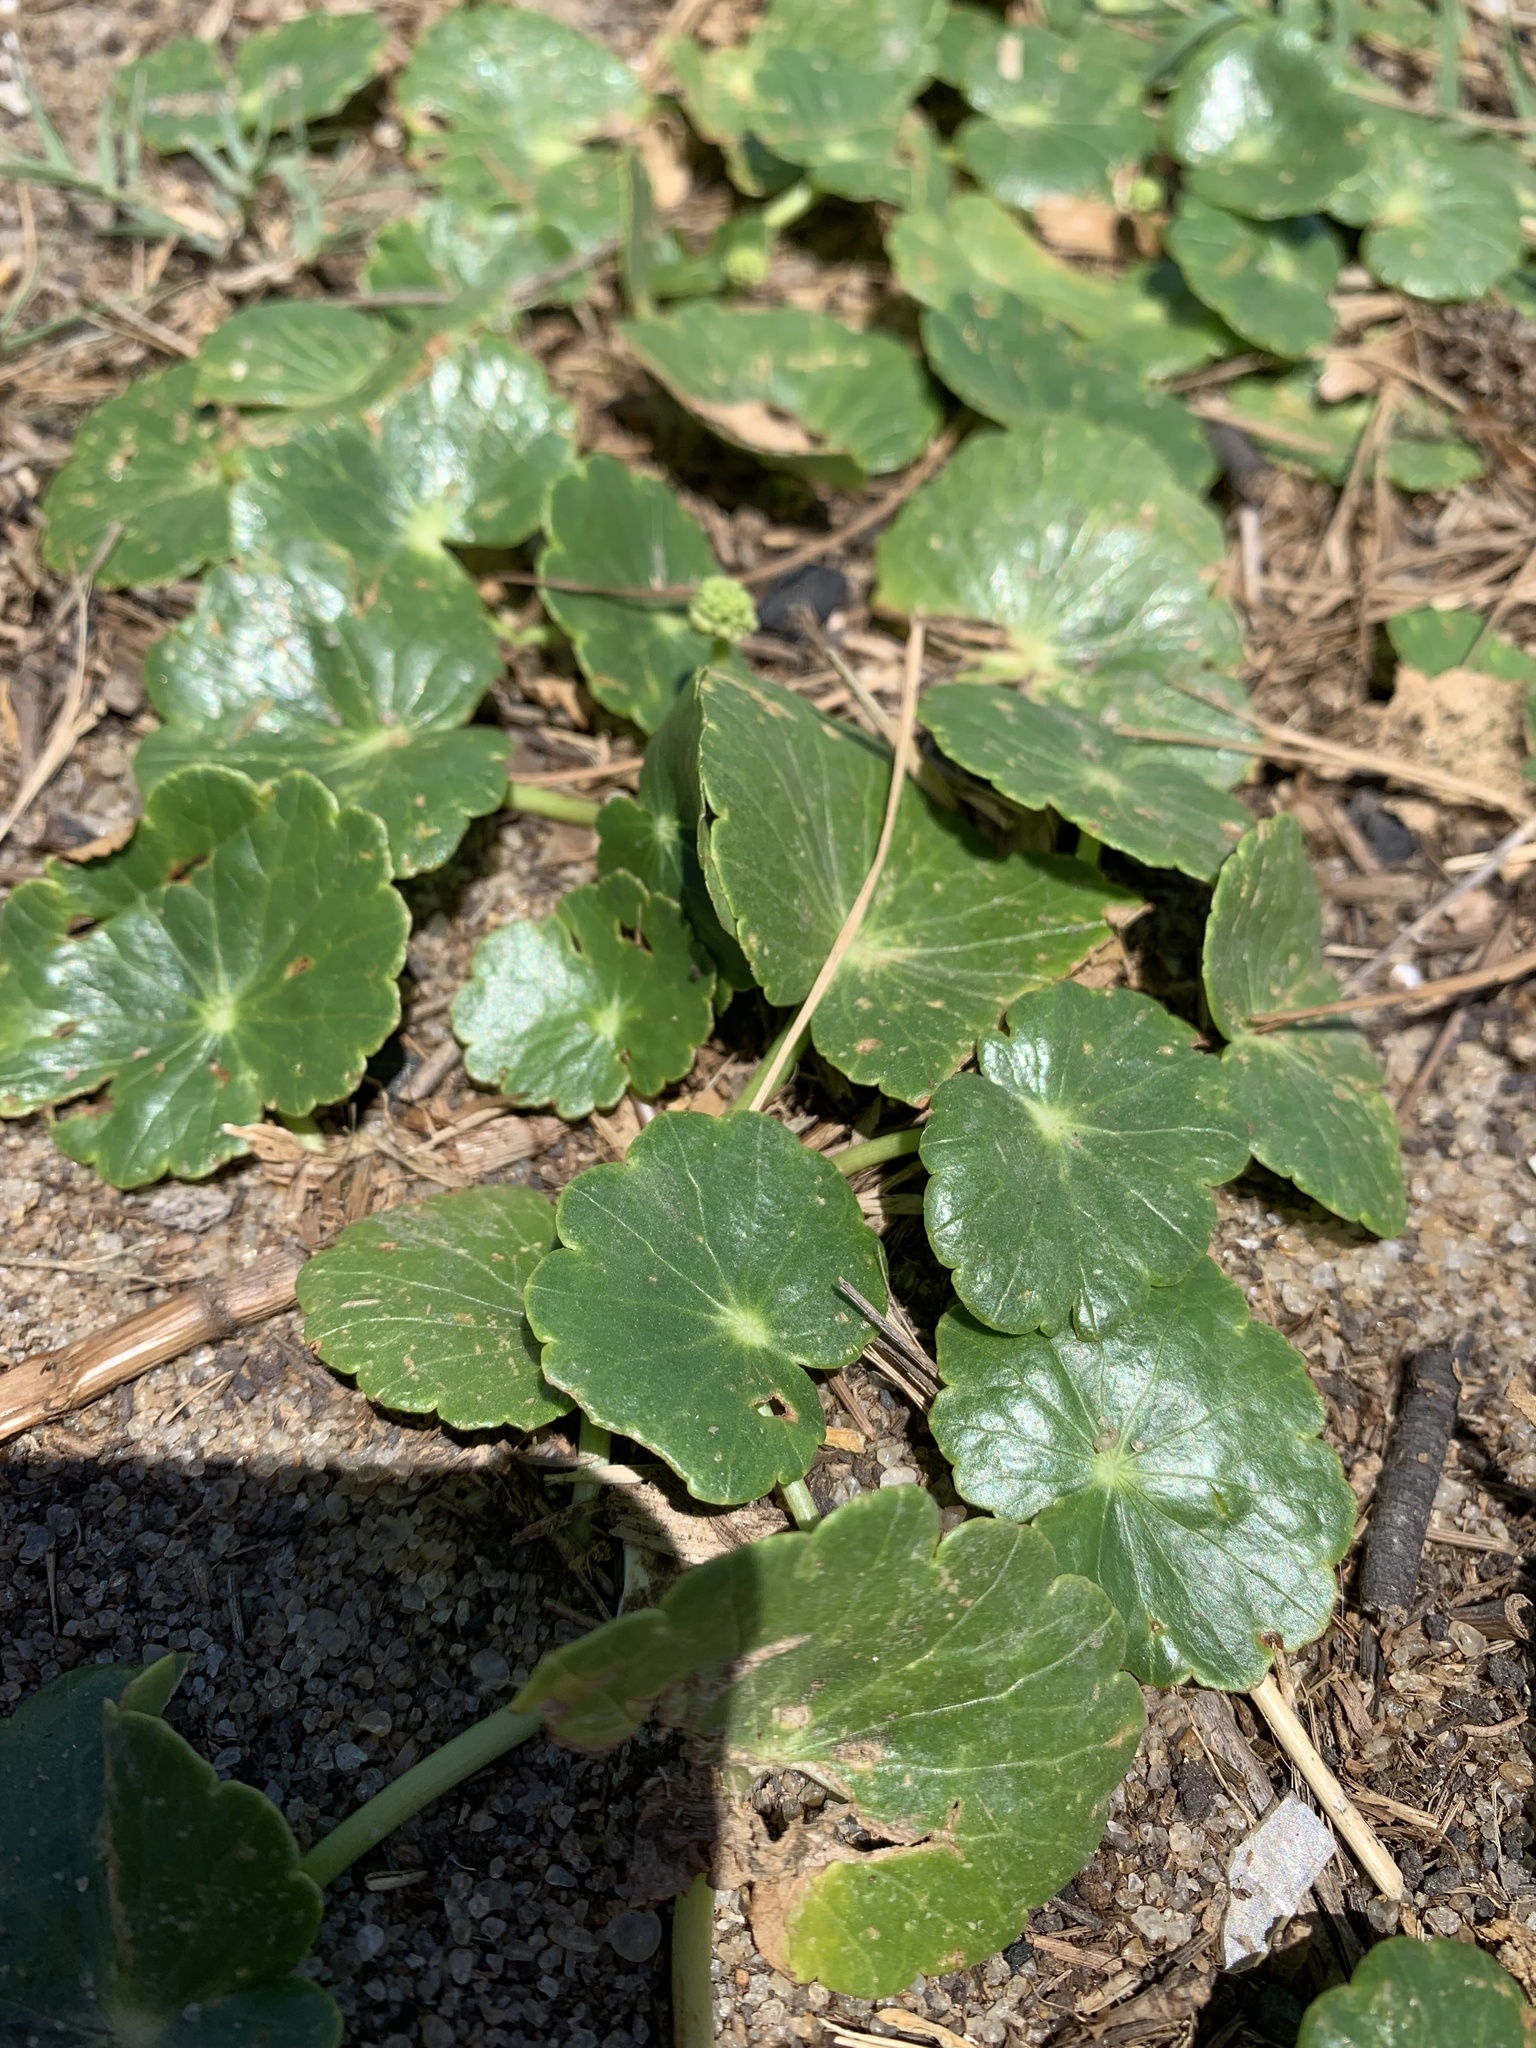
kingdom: Plantae
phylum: Tracheophyta
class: Magnoliopsida
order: Apiales
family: Araliaceae
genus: Hydrocotyle
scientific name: Hydrocotyle bonariensis
